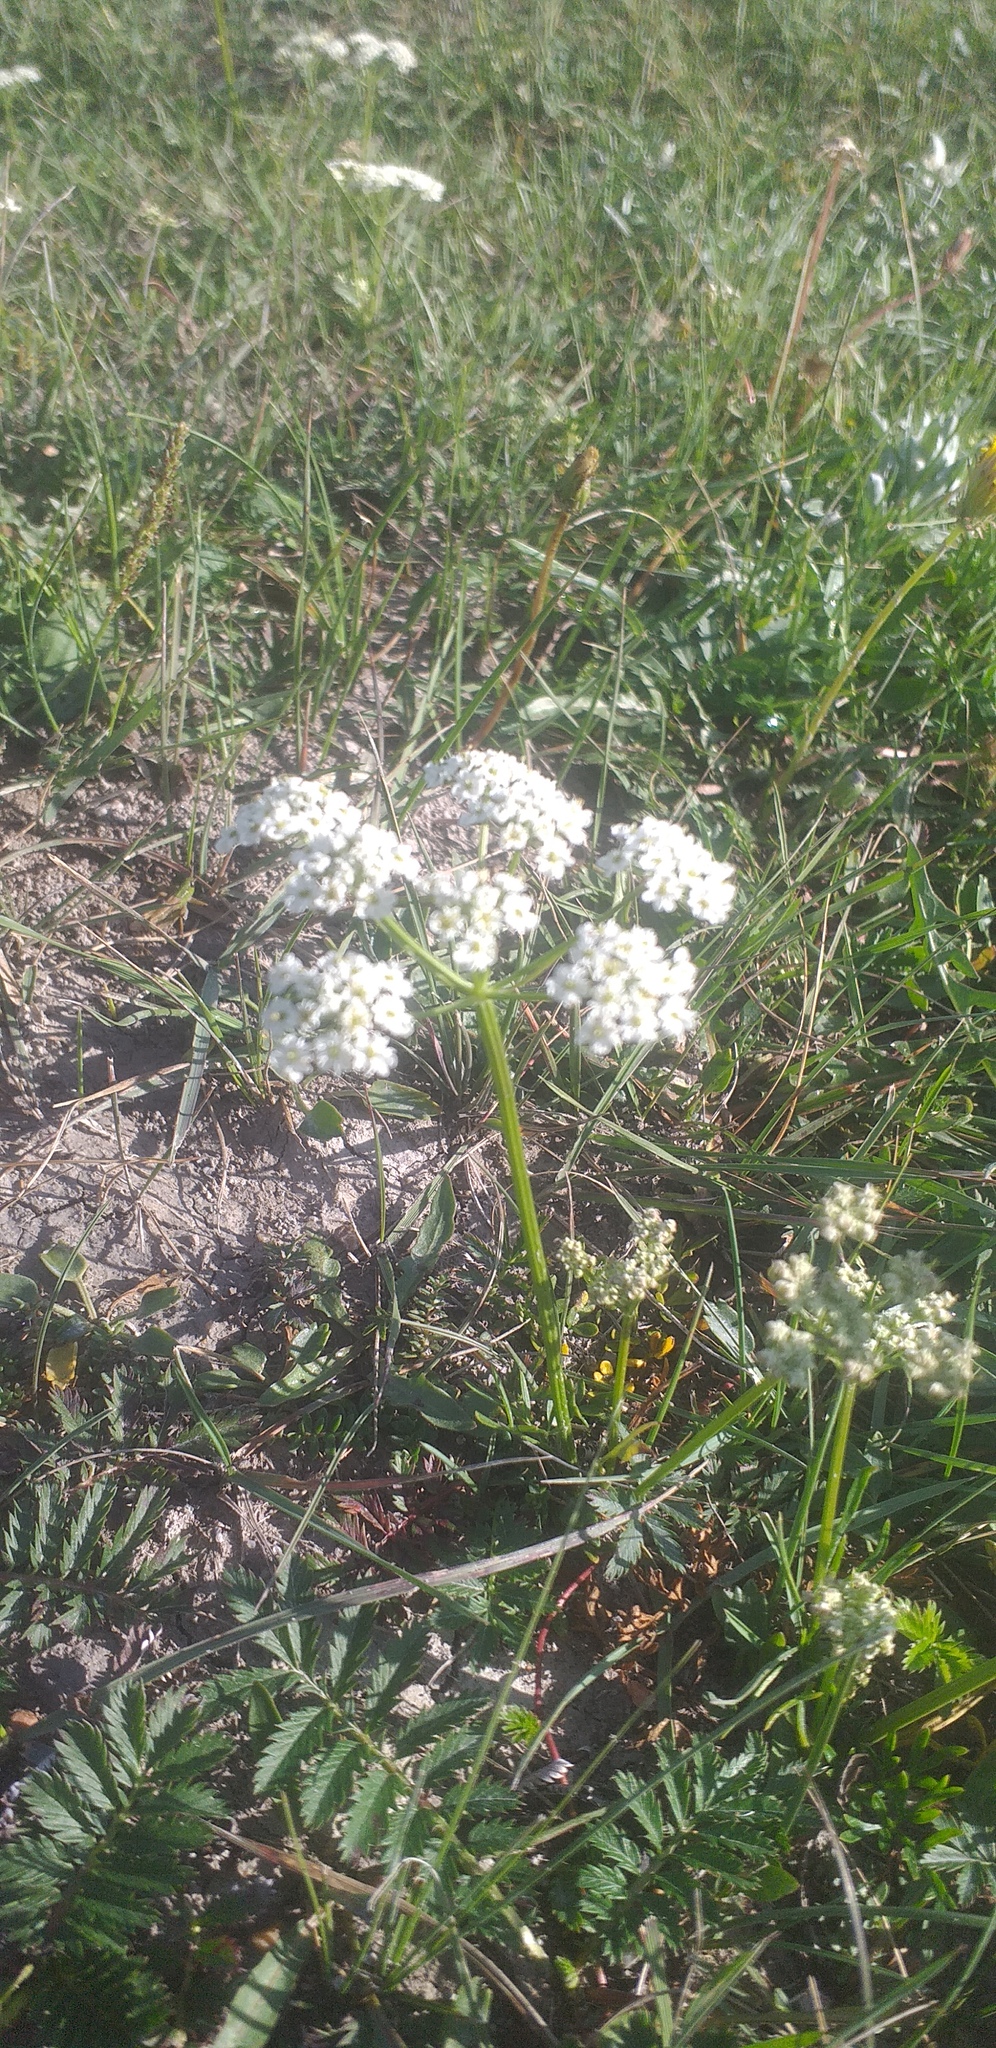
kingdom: Plantae
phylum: Tracheophyta
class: Magnoliopsida
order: Apiales
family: Apiaceae
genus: Peucedanum
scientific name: Peucedanum vaginatum
